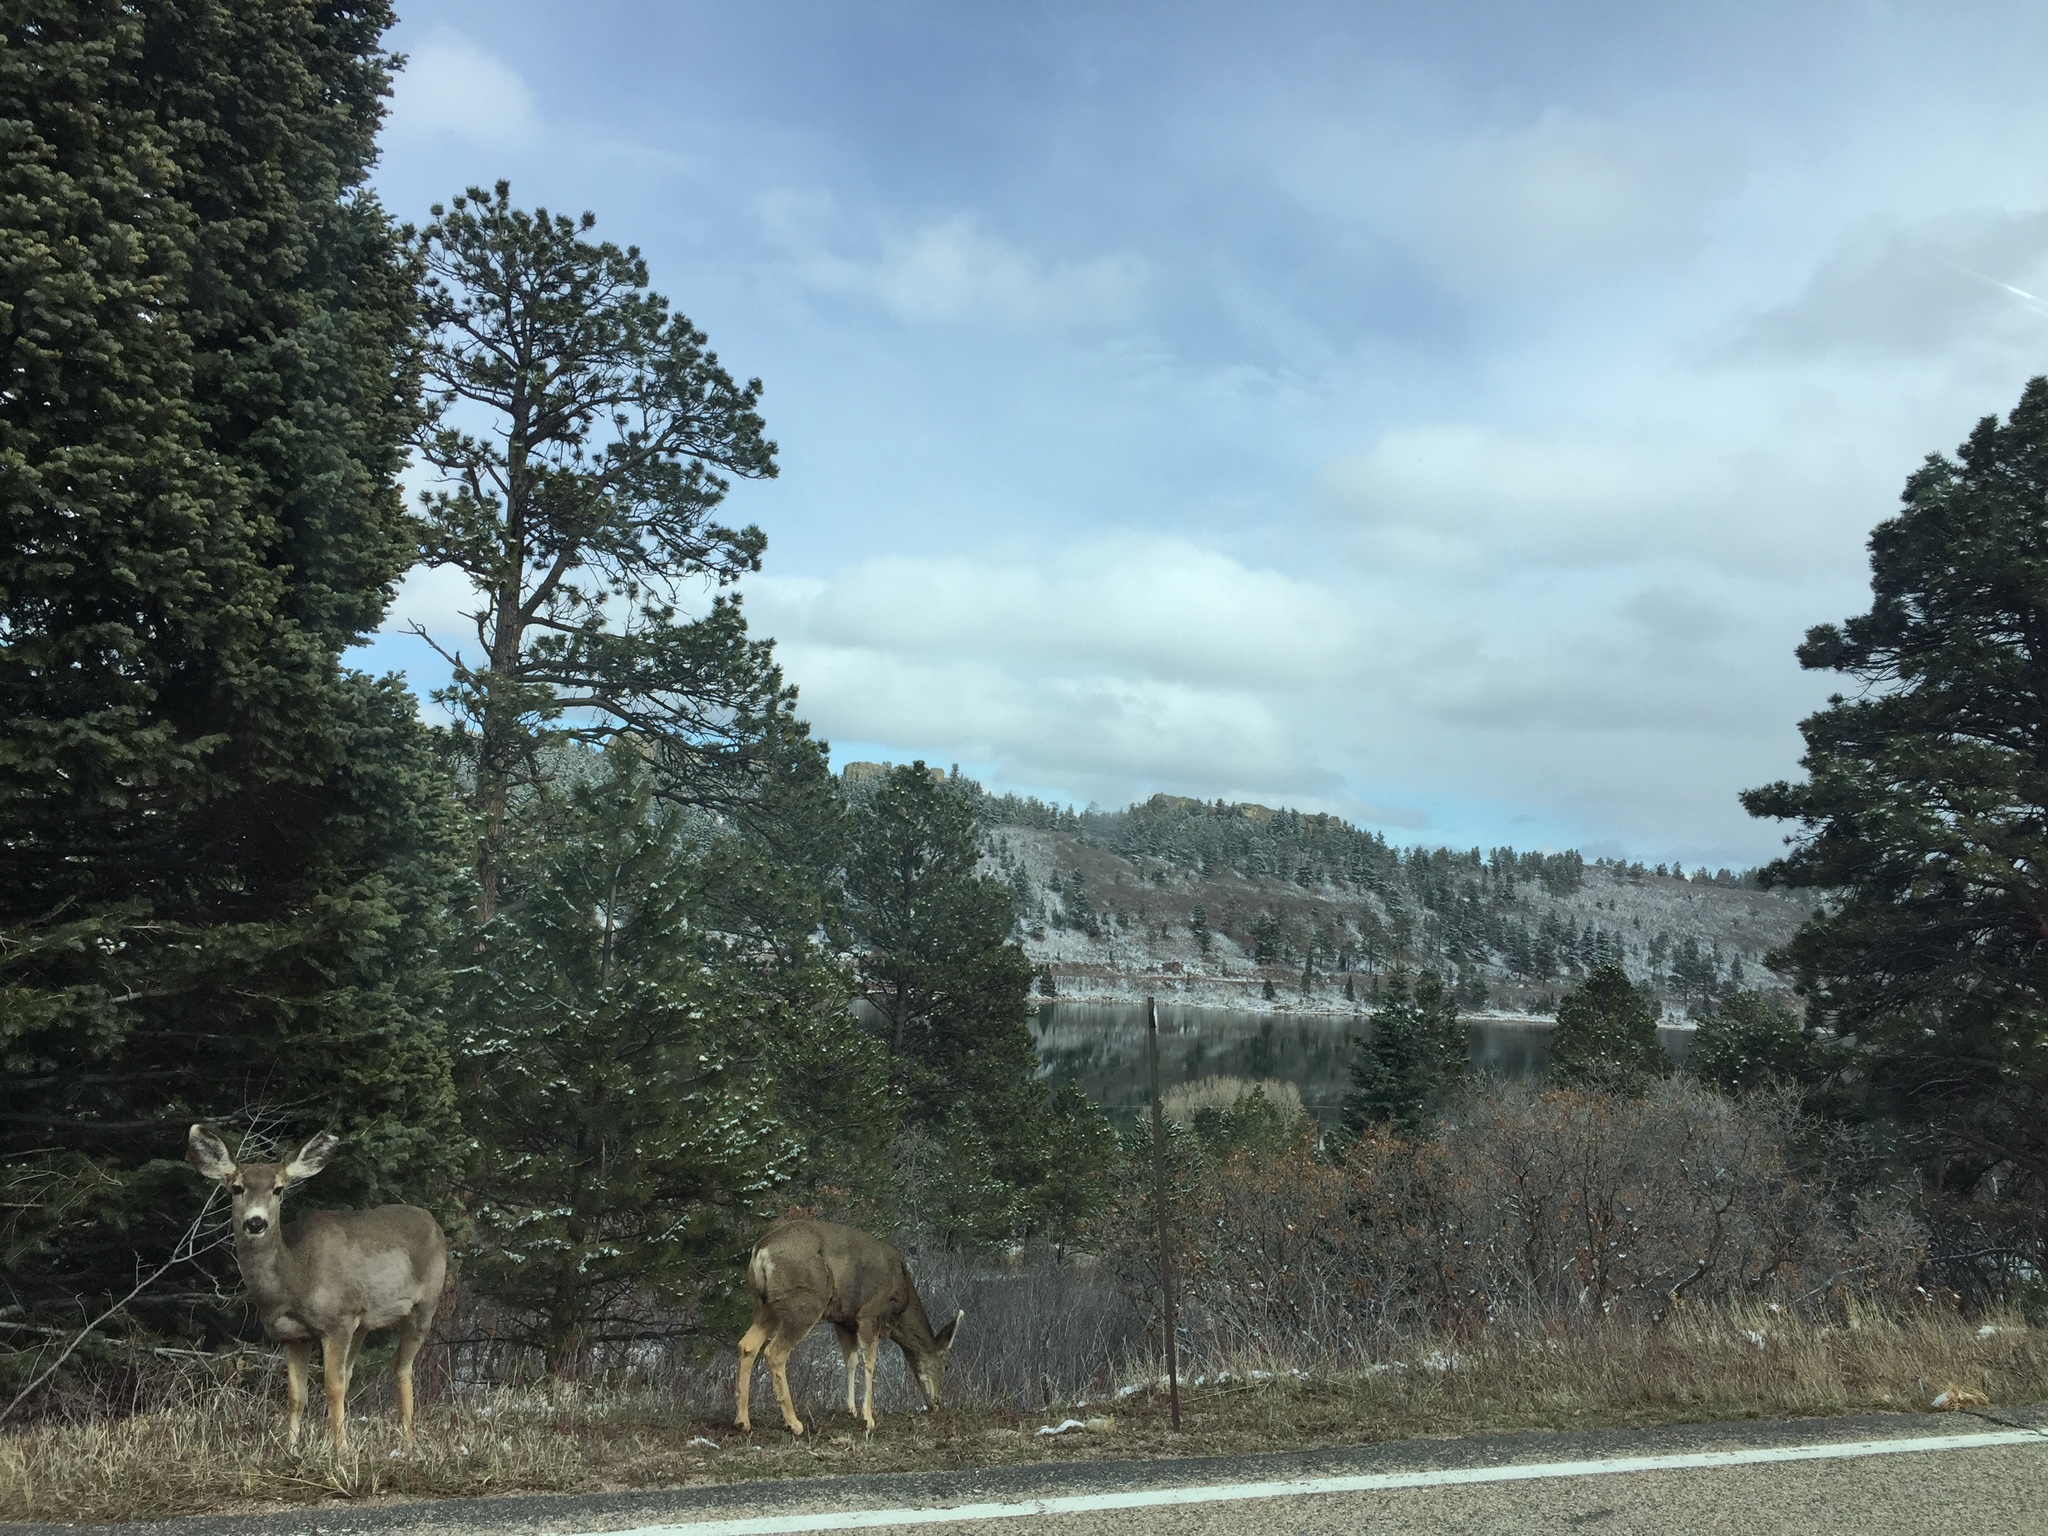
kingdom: Animalia
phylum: Chordata
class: Mammalia
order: Artiodactyla
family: Cervidae
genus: Odocoileus
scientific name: Odocoileus hemionus
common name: Mule deer
